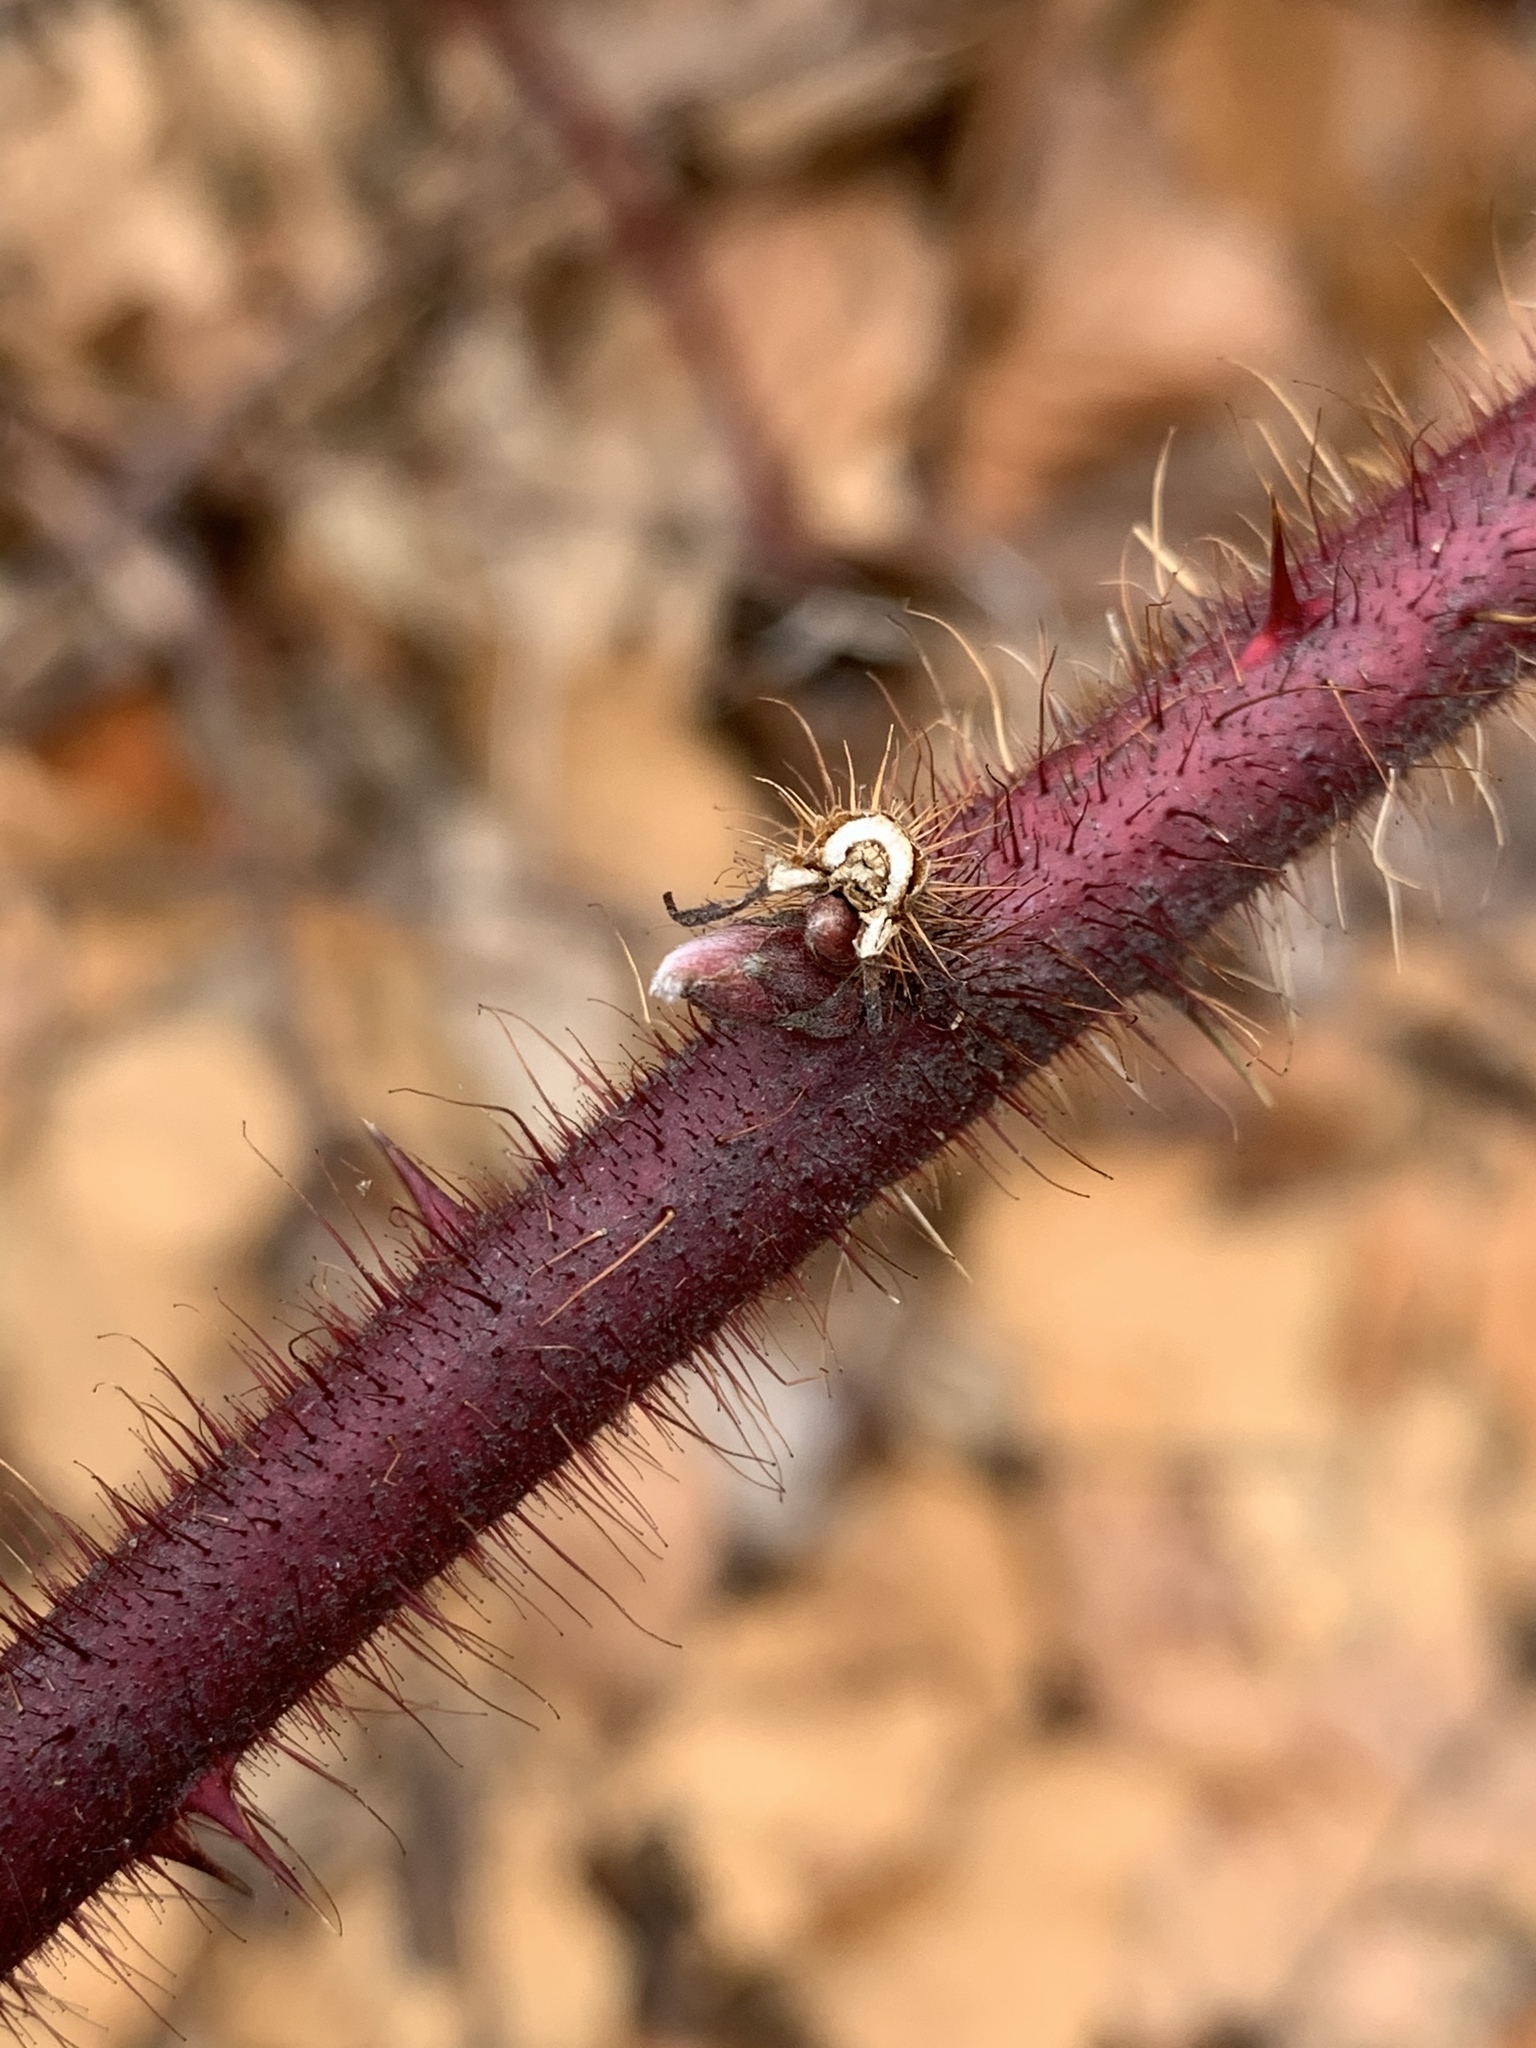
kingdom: Plantae
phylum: Tracheophyta
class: Magnoliopsida
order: Rosales
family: Rosaceae
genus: Rubus
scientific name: Rubus phoenicolasius
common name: Japanese wineberry
